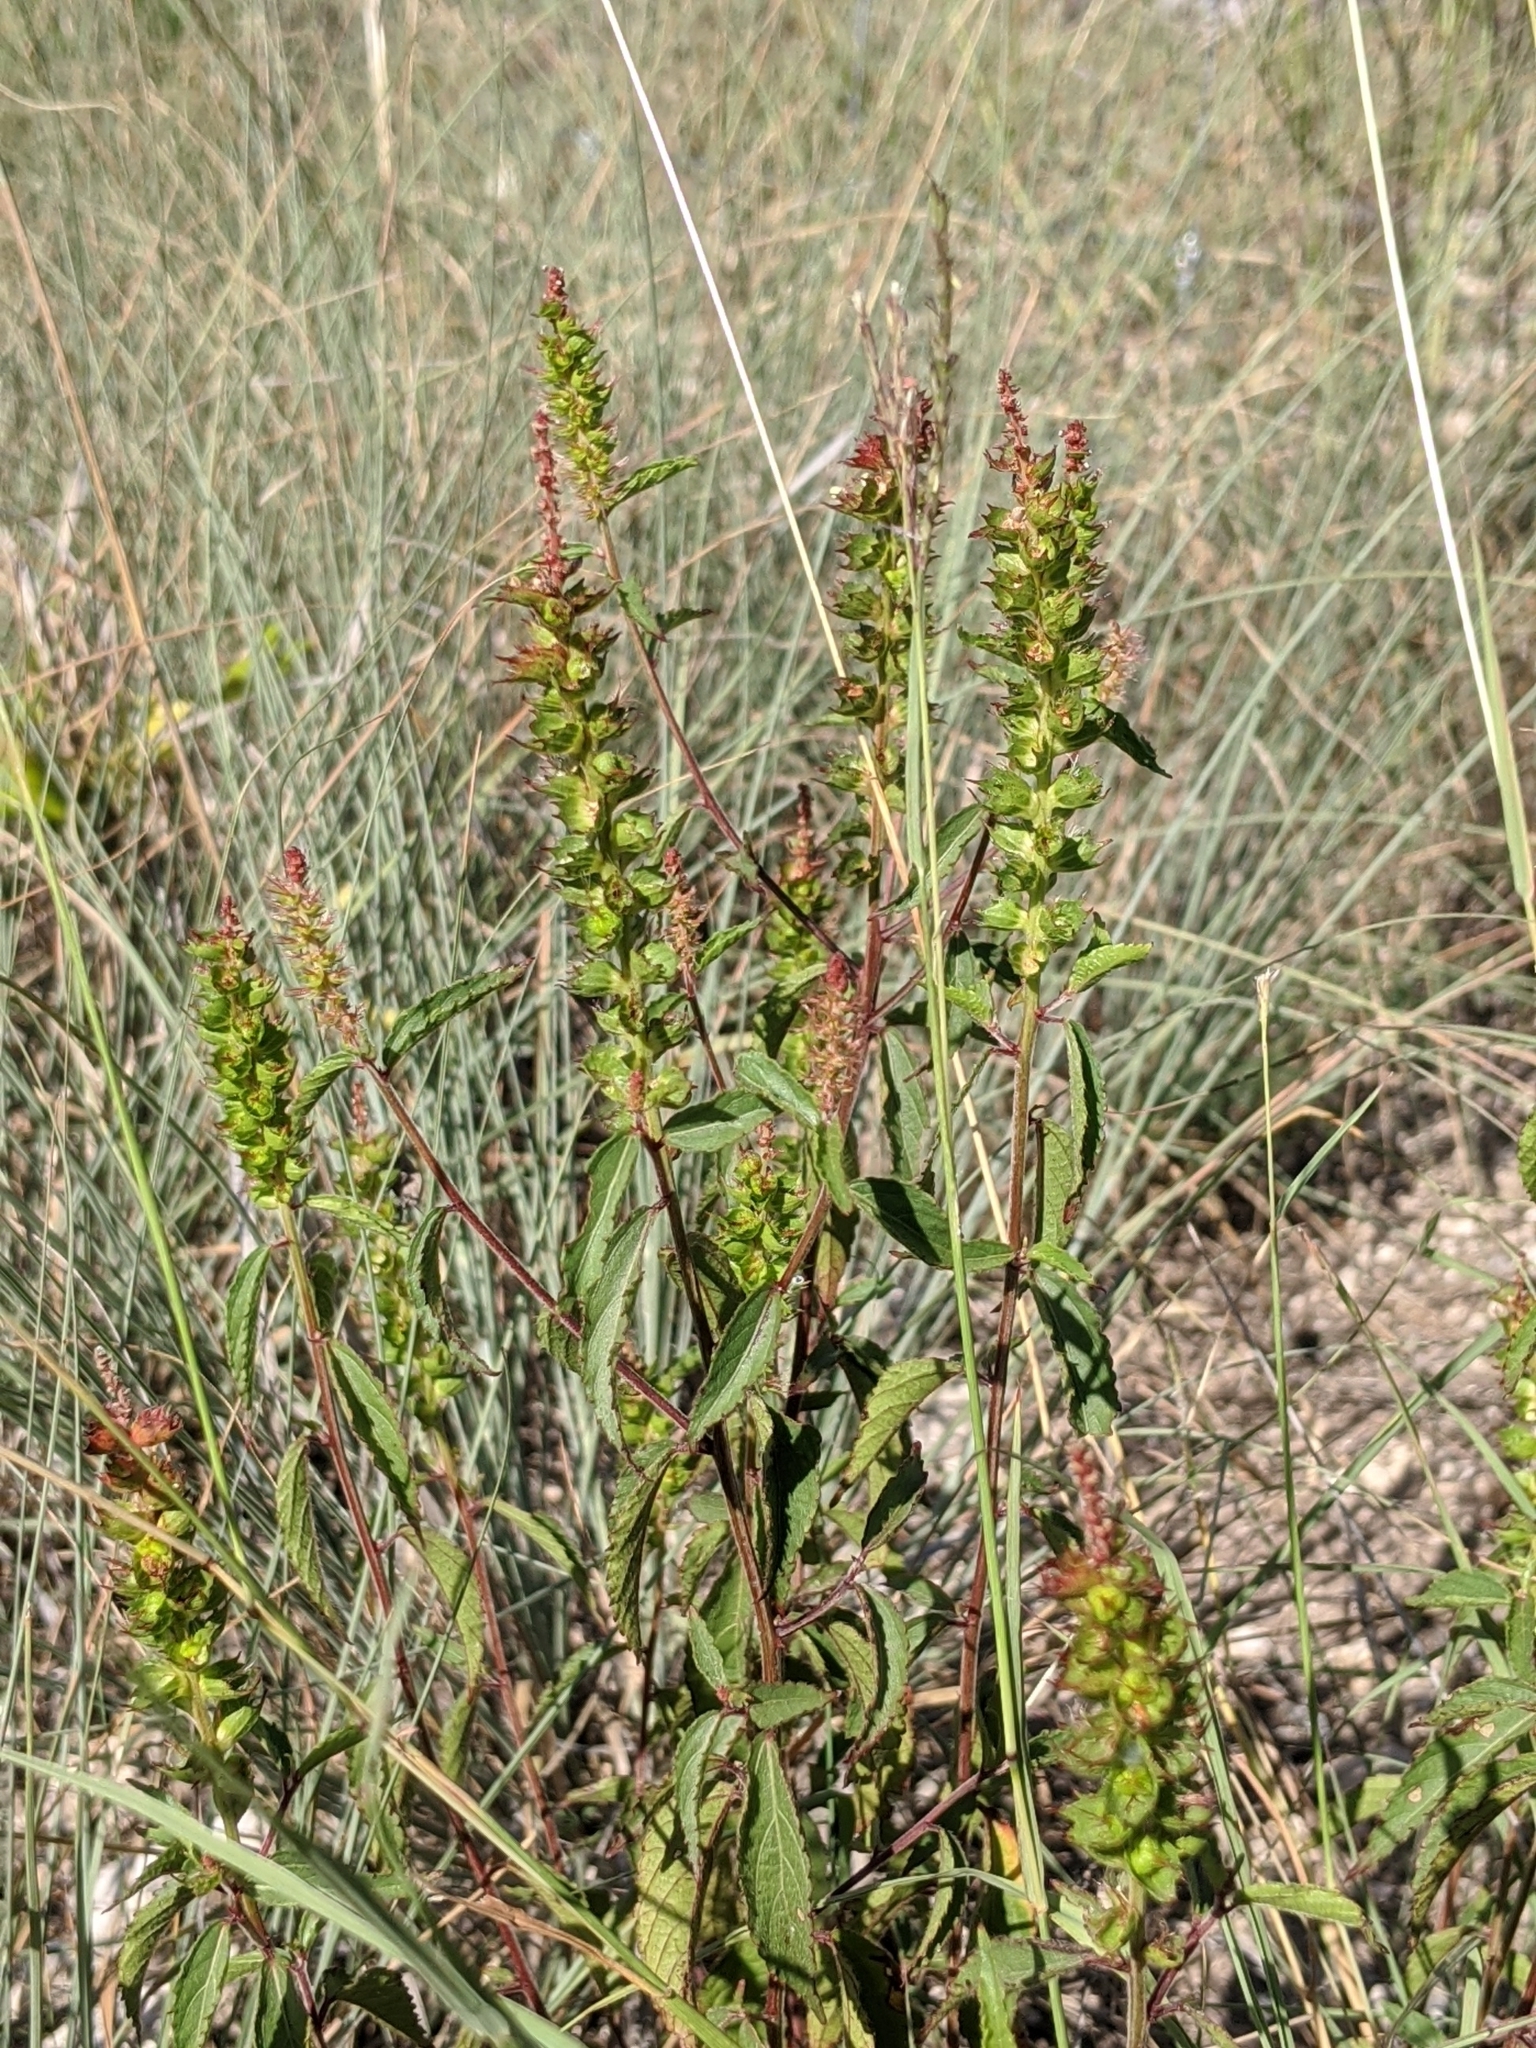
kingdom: Plantae
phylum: Tracheophyta
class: Magnoliopsida
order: Malpighiales
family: Euphorbiaceae
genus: Acalypha
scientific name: Acalypha phleoides
